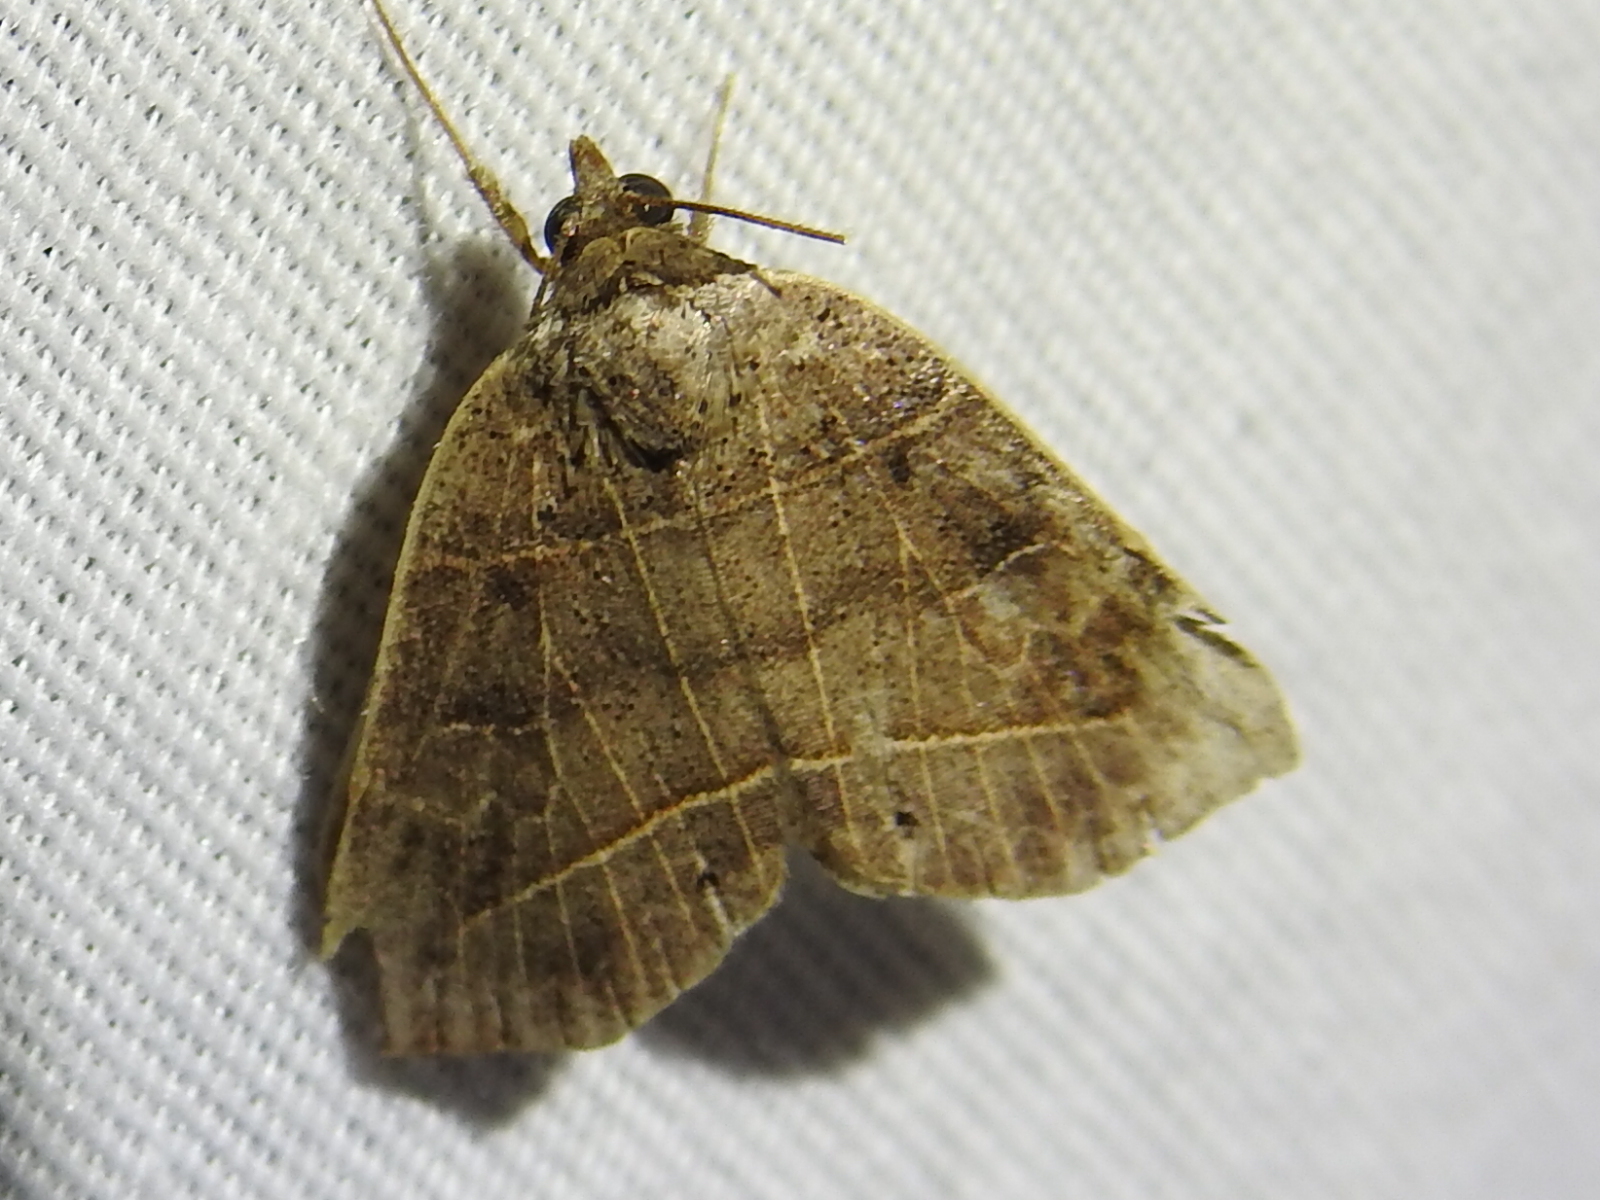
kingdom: Animalia
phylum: Arthropoda
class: Insecta
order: Lepidoptera
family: Erebidae
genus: Isogona
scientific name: Isogona tenuis
